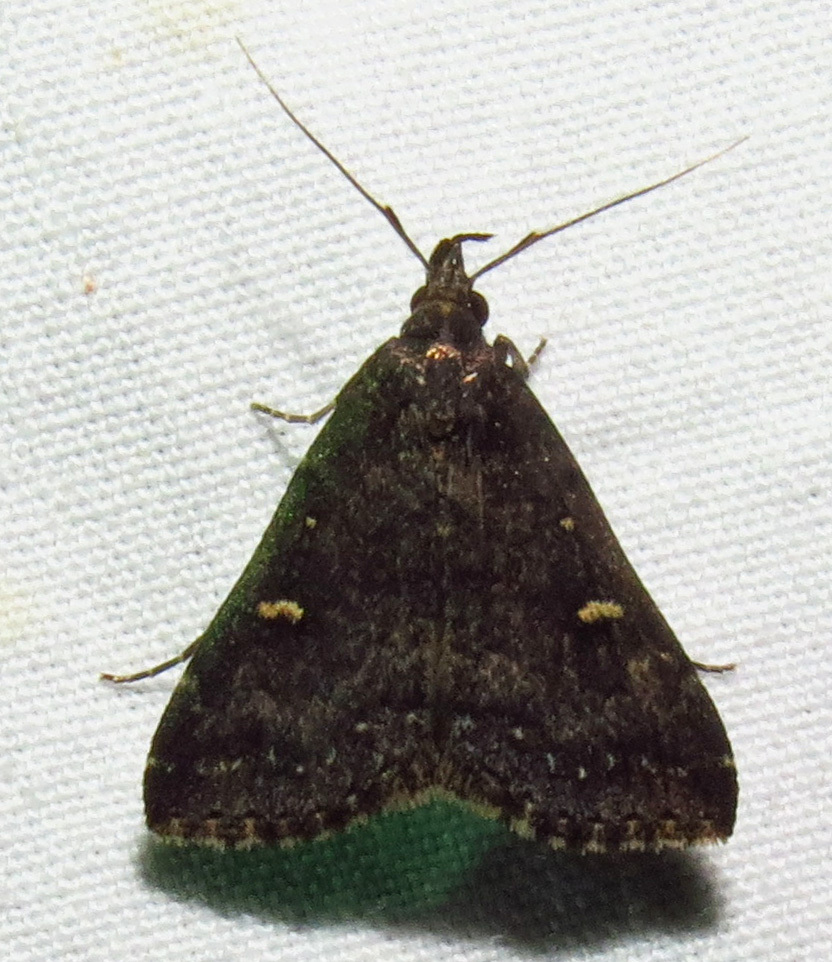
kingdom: Animalia
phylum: Arthropoda
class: Insecta
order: Lepidoptera
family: Erebidae
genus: Tetanolita
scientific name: Tetanolita mynesalis
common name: Smoky tetanolita moth
